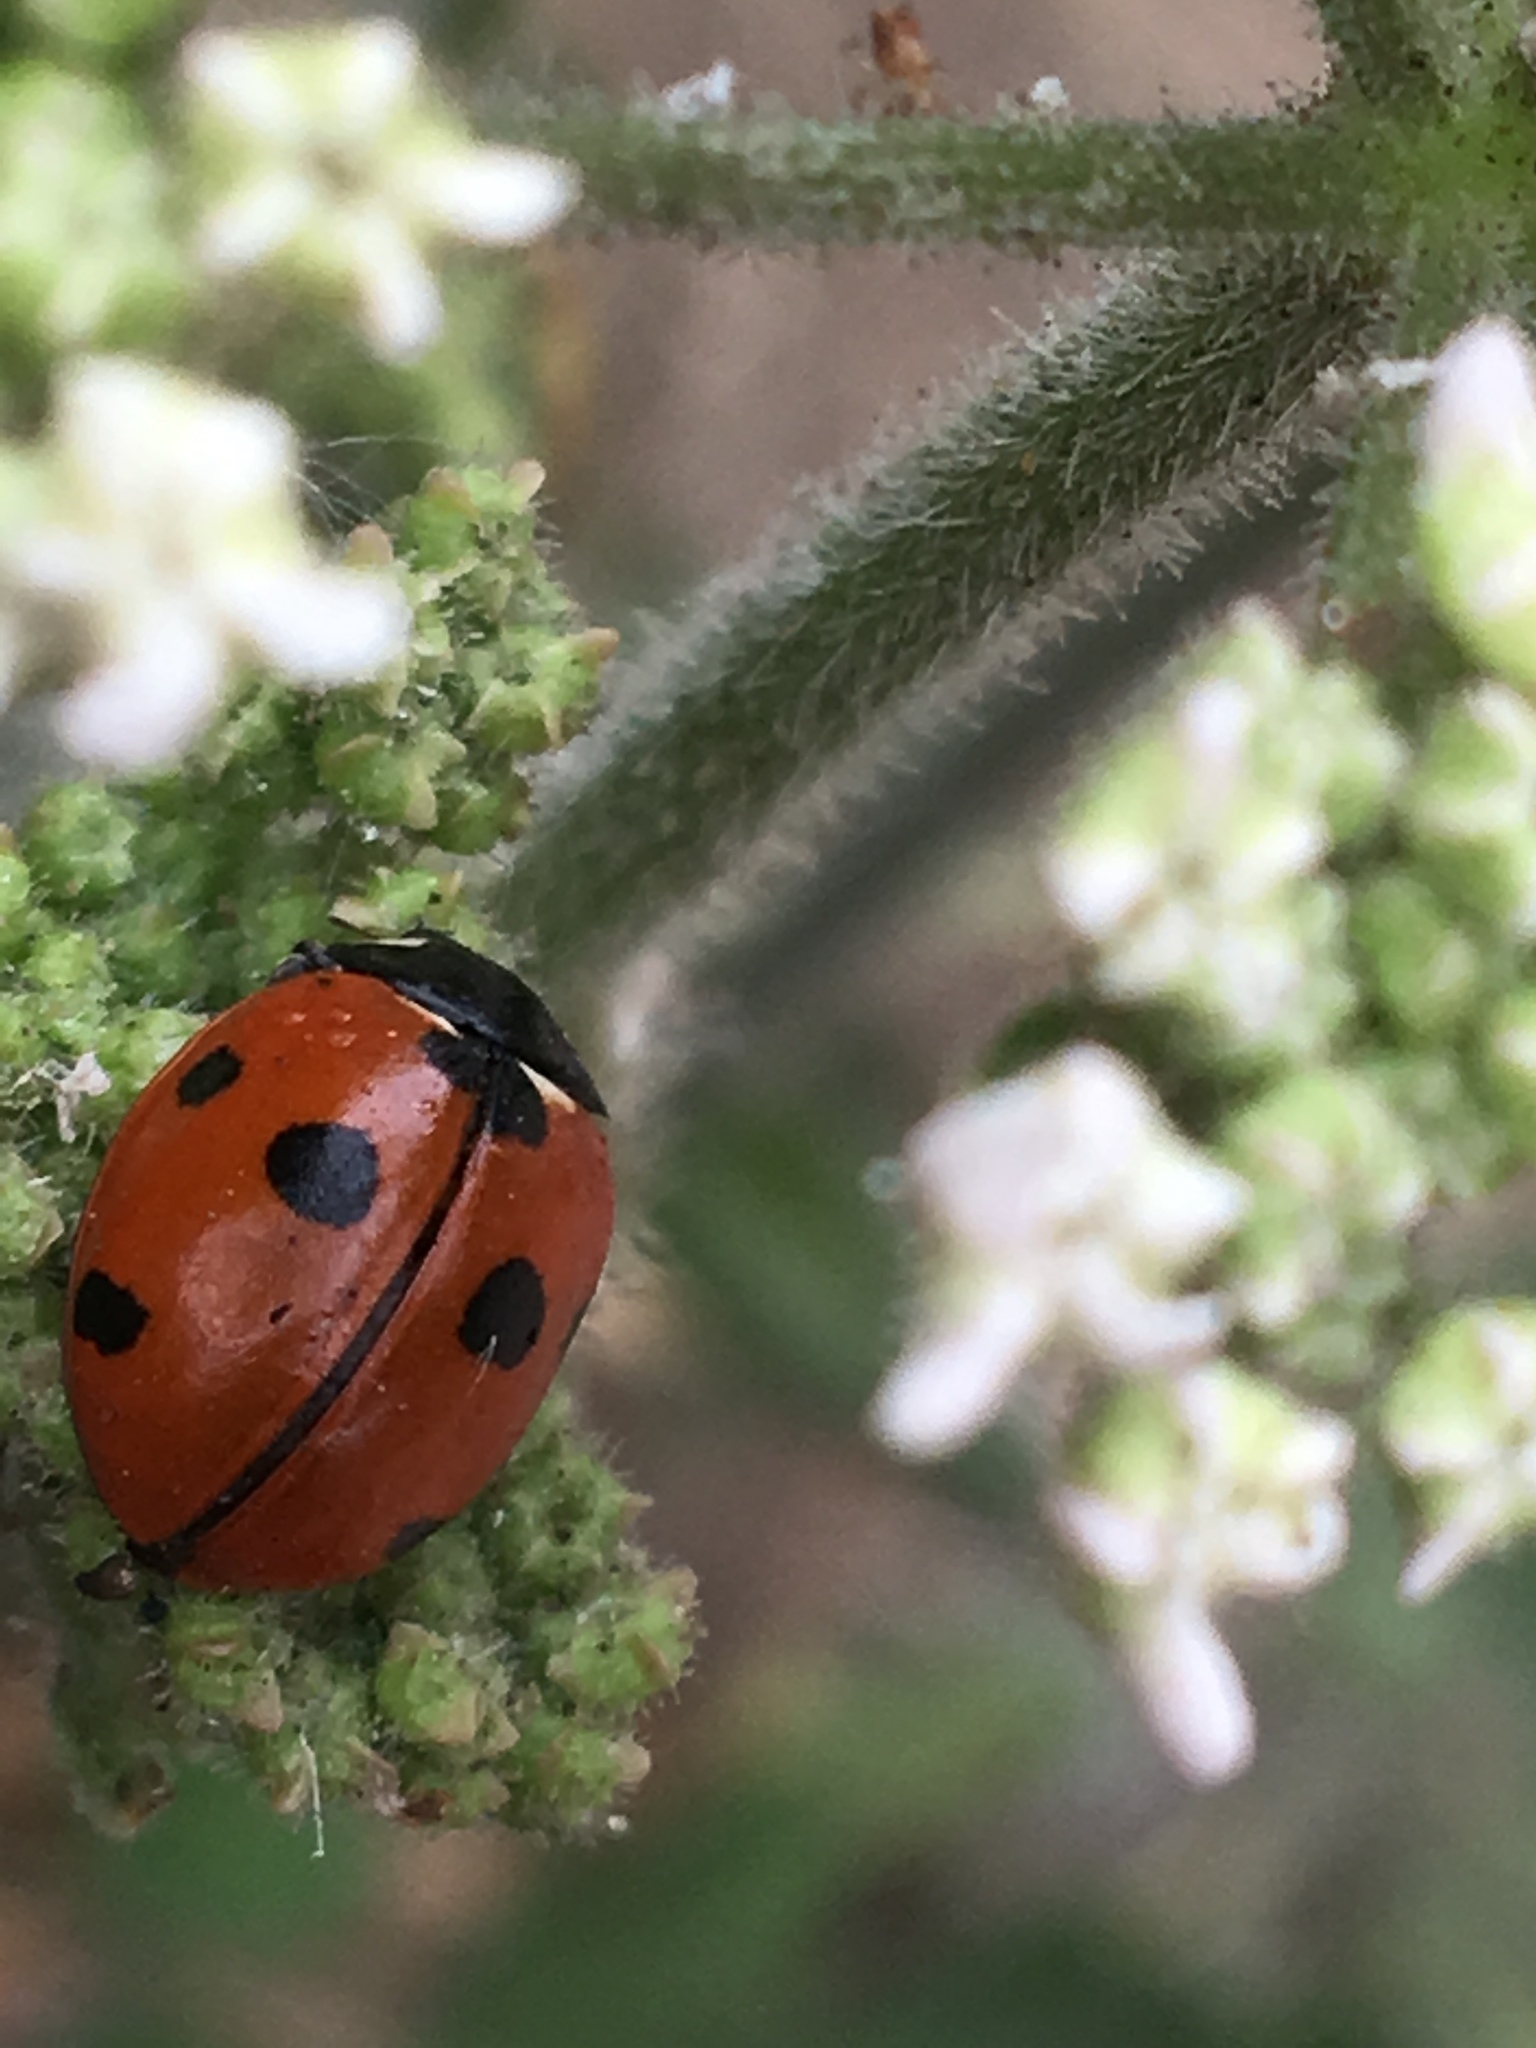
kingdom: Animalia
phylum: Arthropoda
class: Insecta
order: Coleoptera
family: Coccinellidae
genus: Coccinella
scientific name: Coccinella septempunctata
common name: Sevenspotted lady beetle
